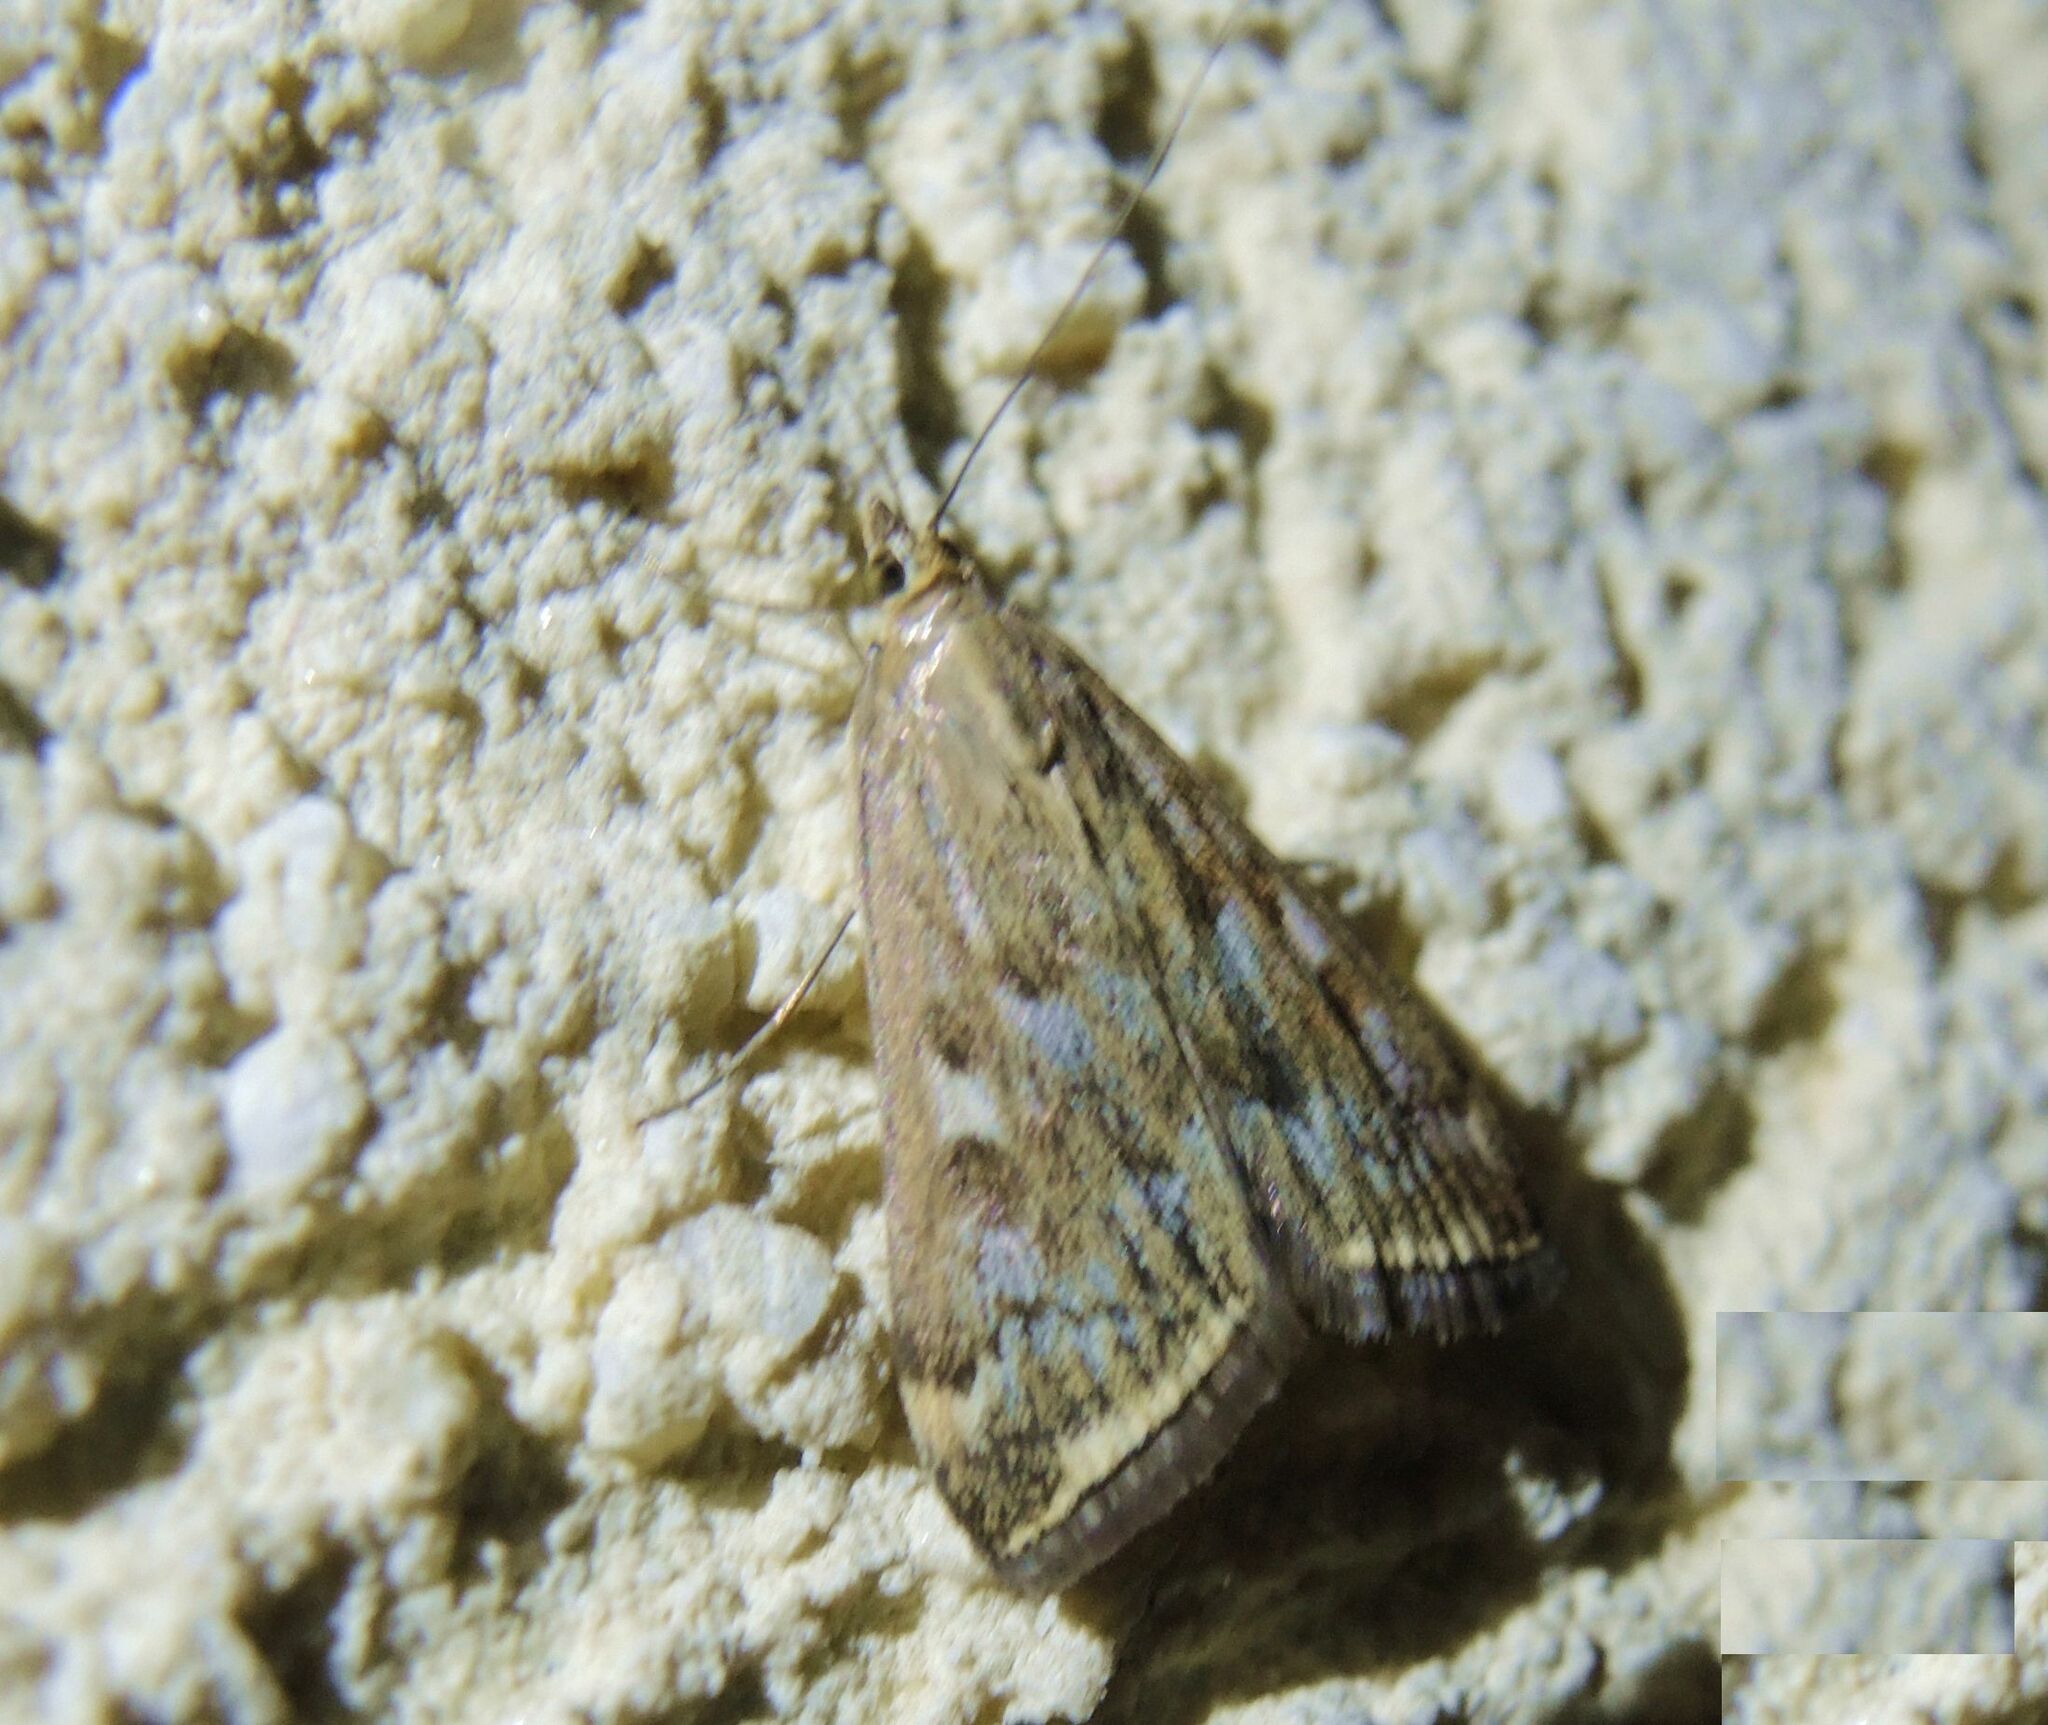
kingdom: Animalia
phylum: Arthropoda
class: Insecta
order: Lepidoptera
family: Crambidae
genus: Loxostege
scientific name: Loxostege sticticalis
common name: Crambid moth
